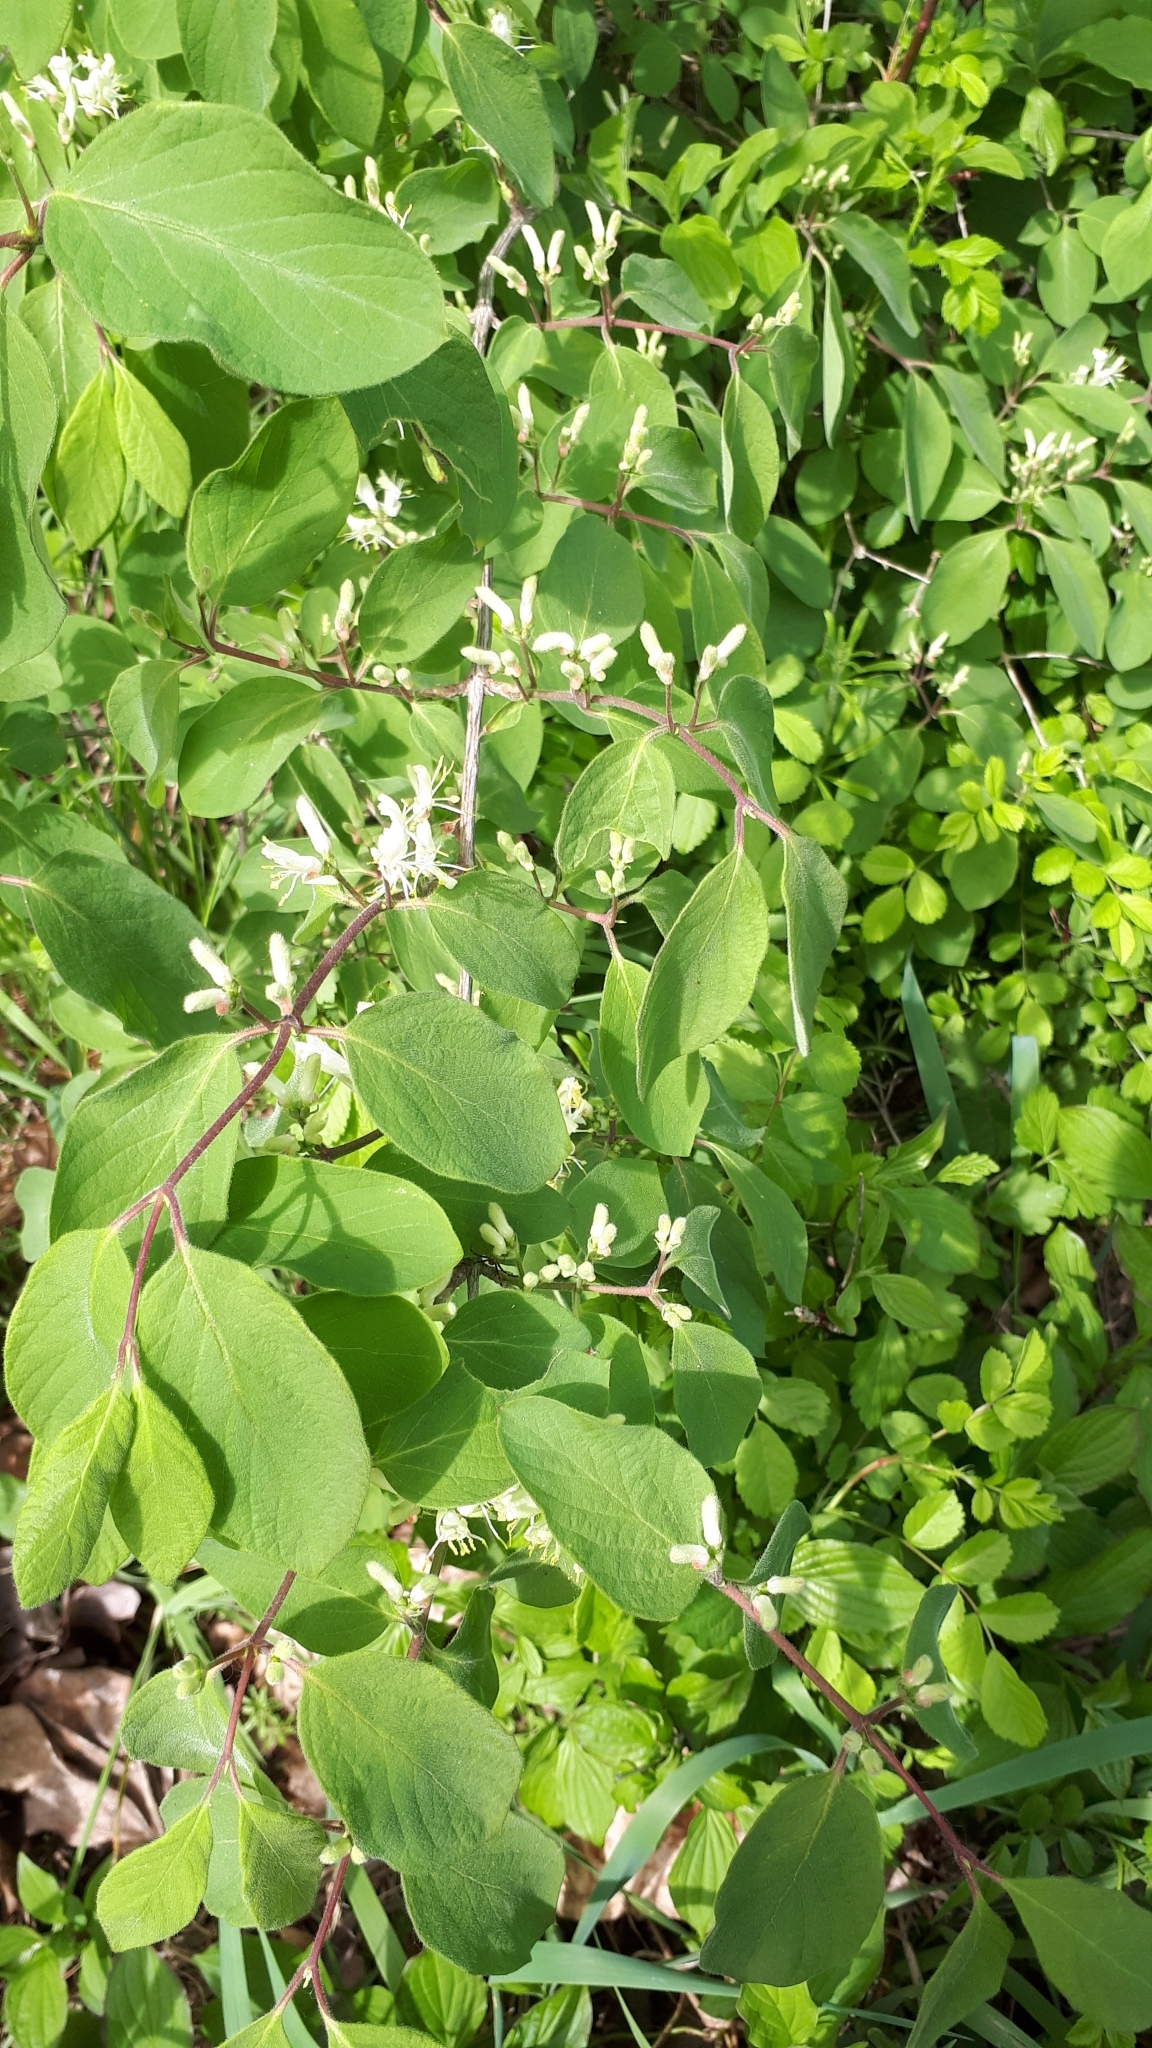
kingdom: Plantae
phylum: Tracheophyta
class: Magnoliopsida
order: Dipsacales
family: Caprifoliaceae
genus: Lonicera
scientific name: Lonicera xylosteum
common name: Fly honeysuckle
